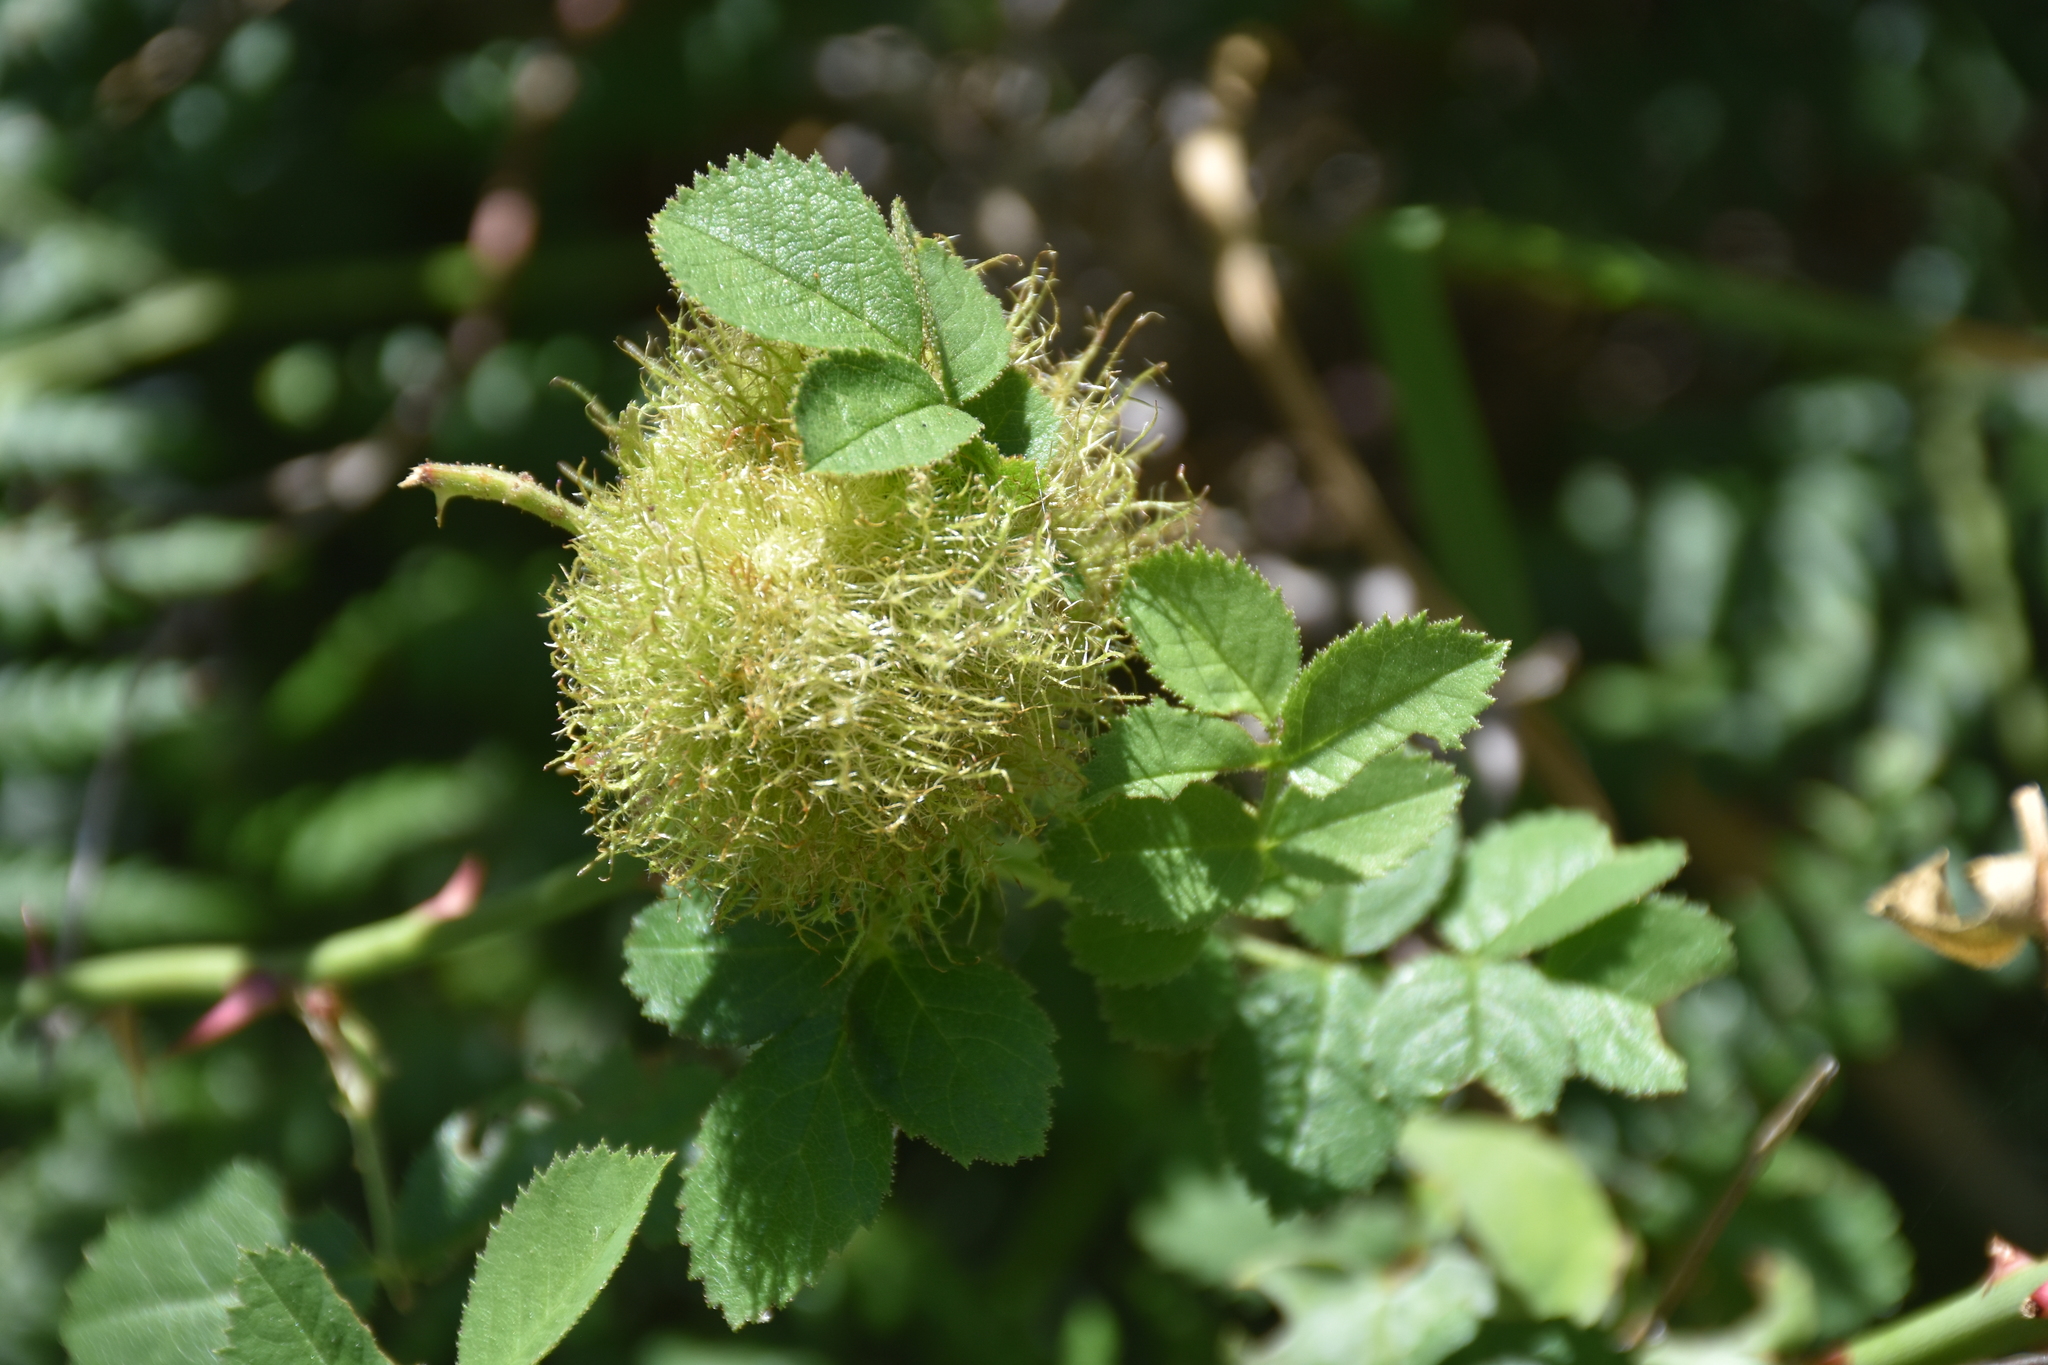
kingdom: Animalia
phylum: Arthropoda
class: Insecta
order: Hymenoptera
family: Cynipidae
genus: Diplolepis
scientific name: Diplolepis rosae
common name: Bedeguar gall
